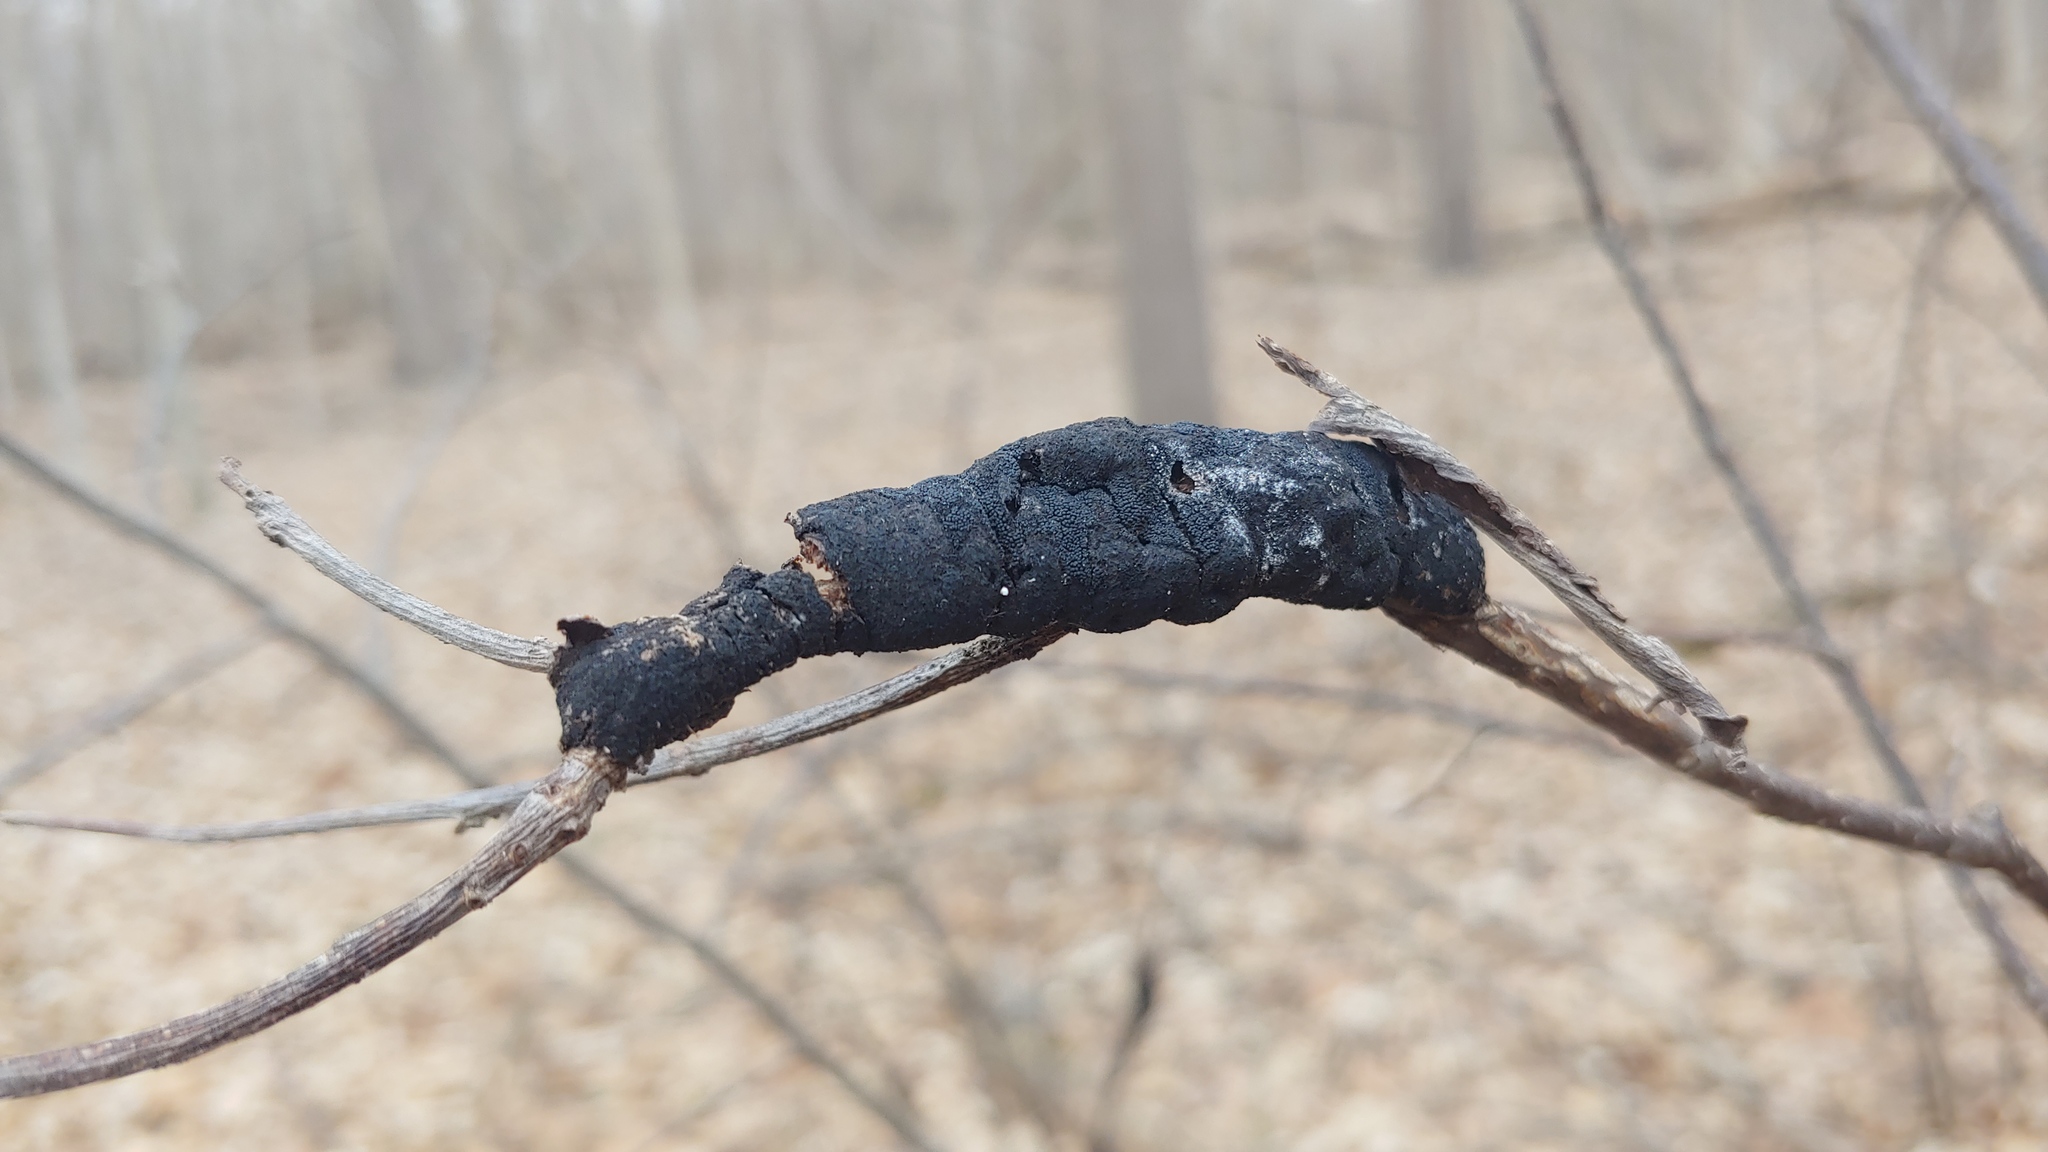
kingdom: Fungi
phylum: Ascomycota
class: Sordariomycetes
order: Hypocreales
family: Myrotheciomycetaceae
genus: Trichothecium
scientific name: Trichothecium roseum
